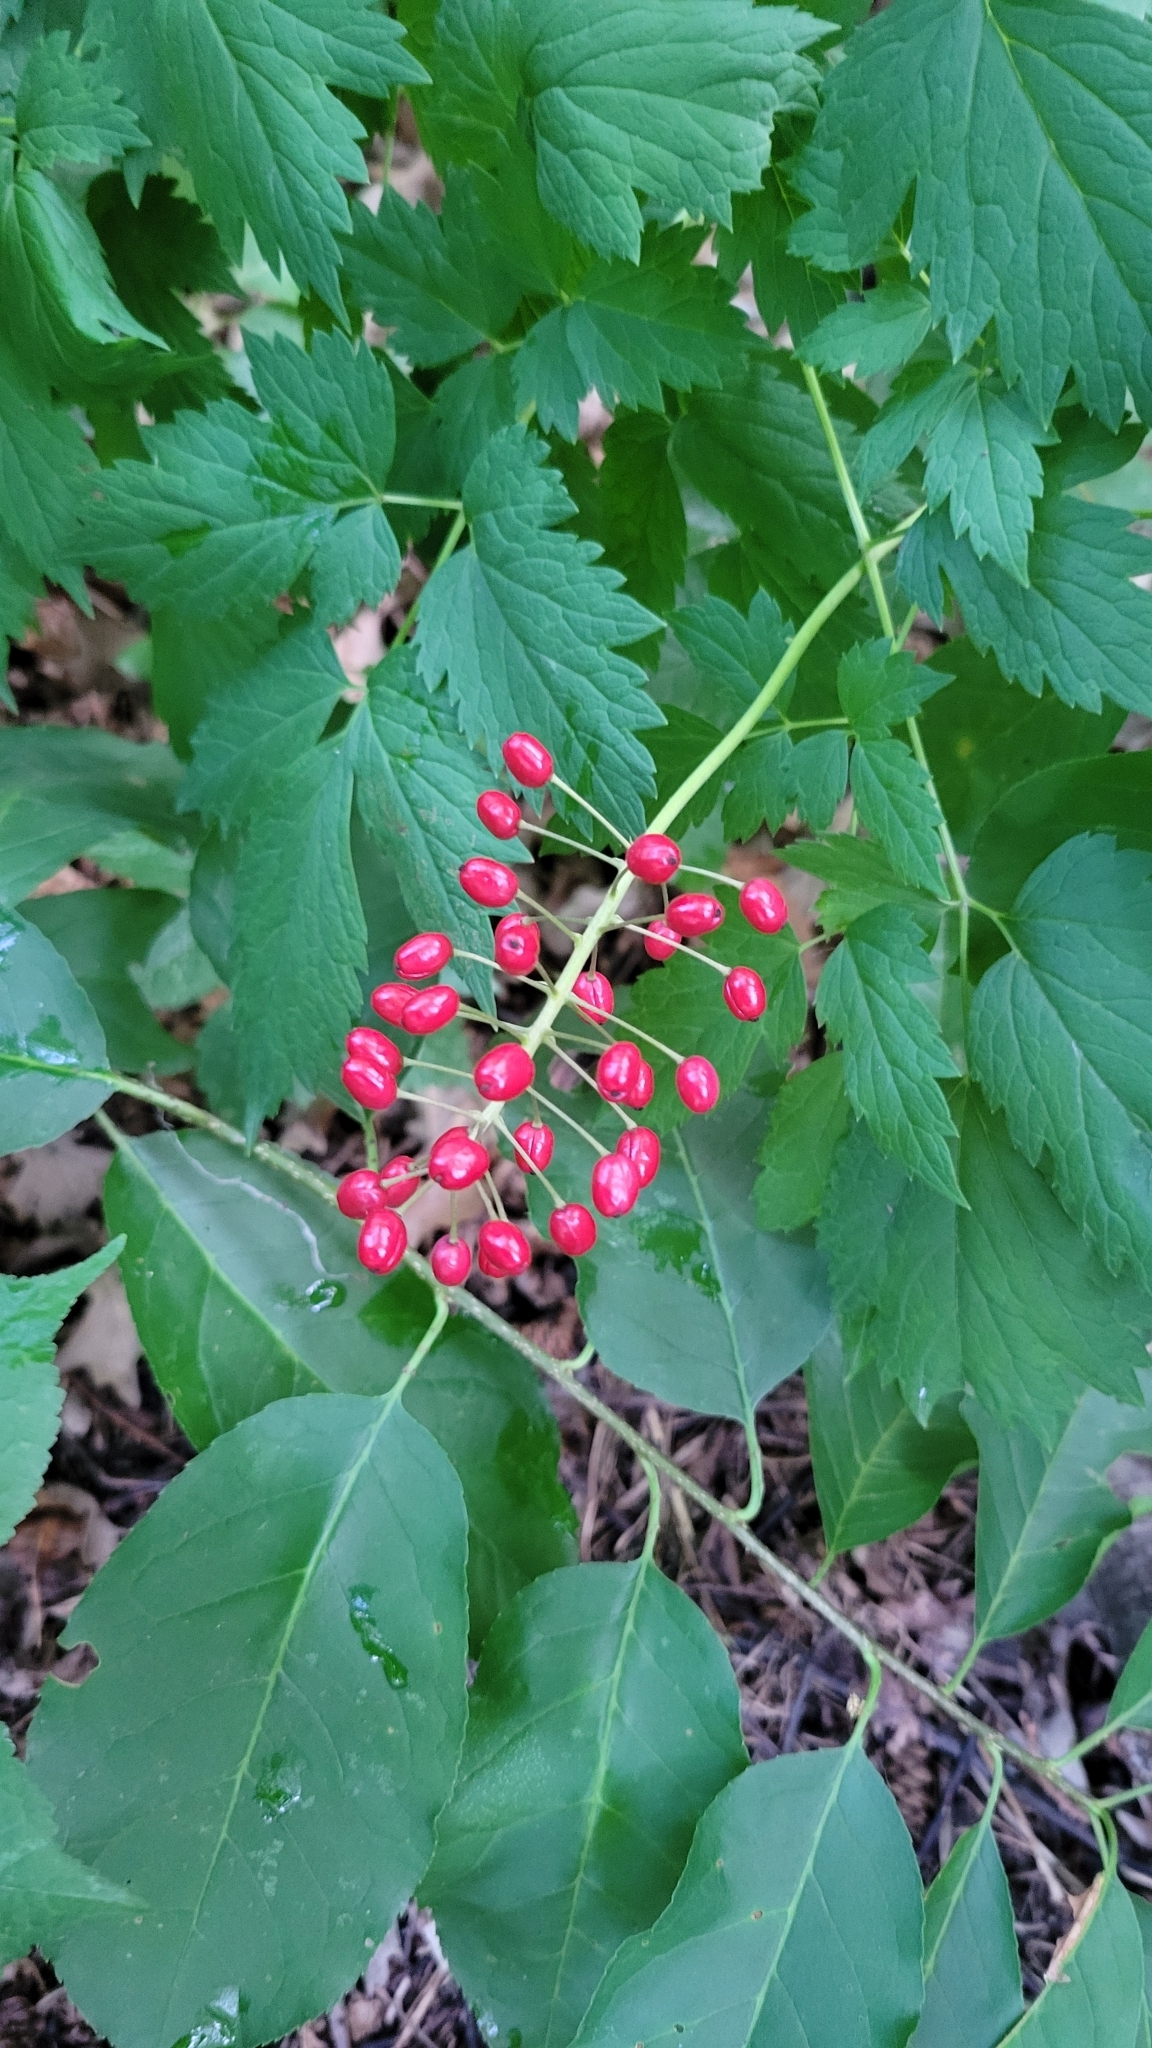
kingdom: Plantae
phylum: Tracheophyta
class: Magnoliopsida
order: Ranunculales
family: Ranunculaceae
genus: Actaea
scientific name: Actaea rubra
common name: Red baneberry
